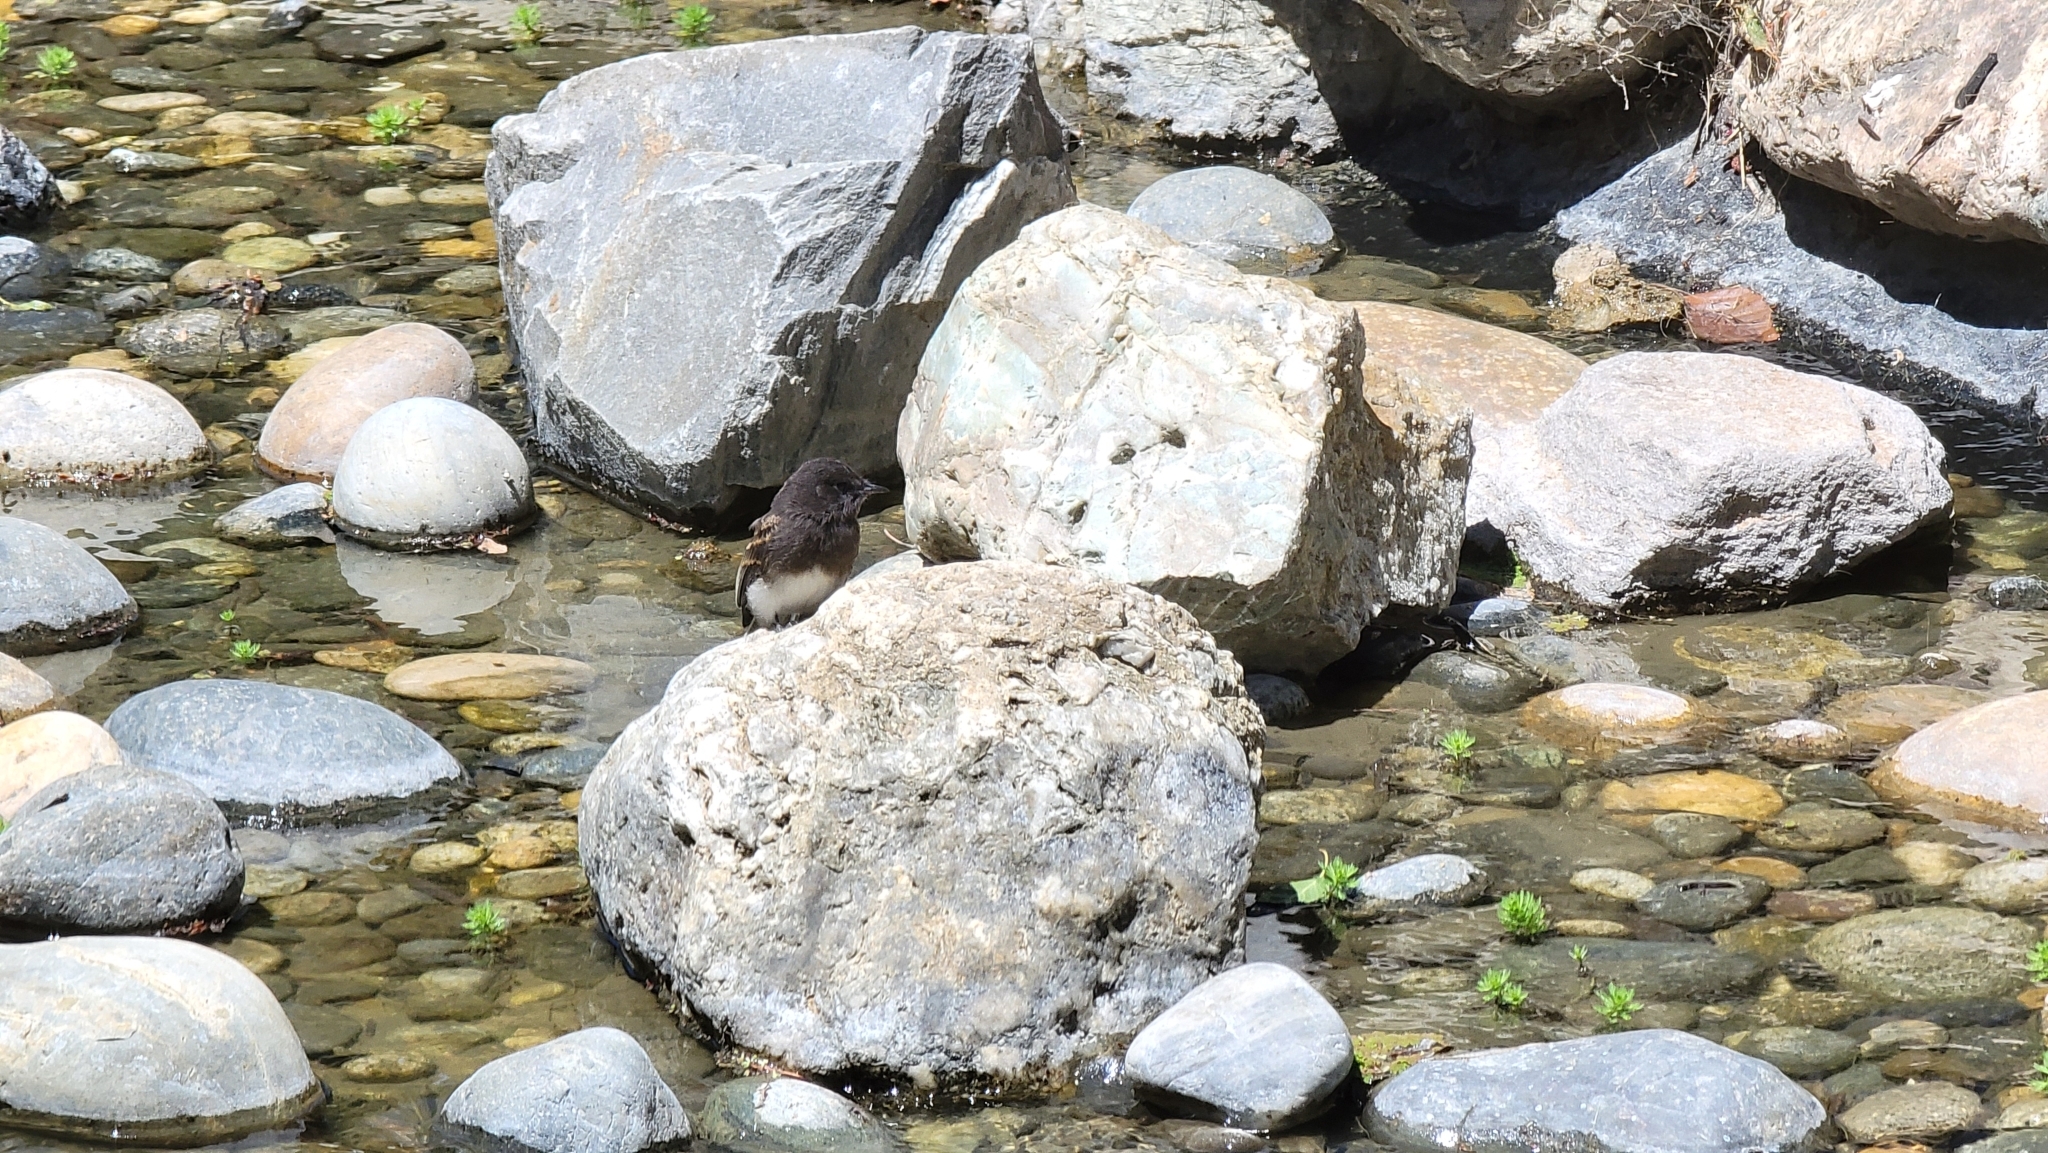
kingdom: Animalia
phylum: Chordata
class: Aves
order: Passeriformes
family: Tyrannidae
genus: Sayornis
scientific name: Sayornis nigricans
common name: Black phoebe
